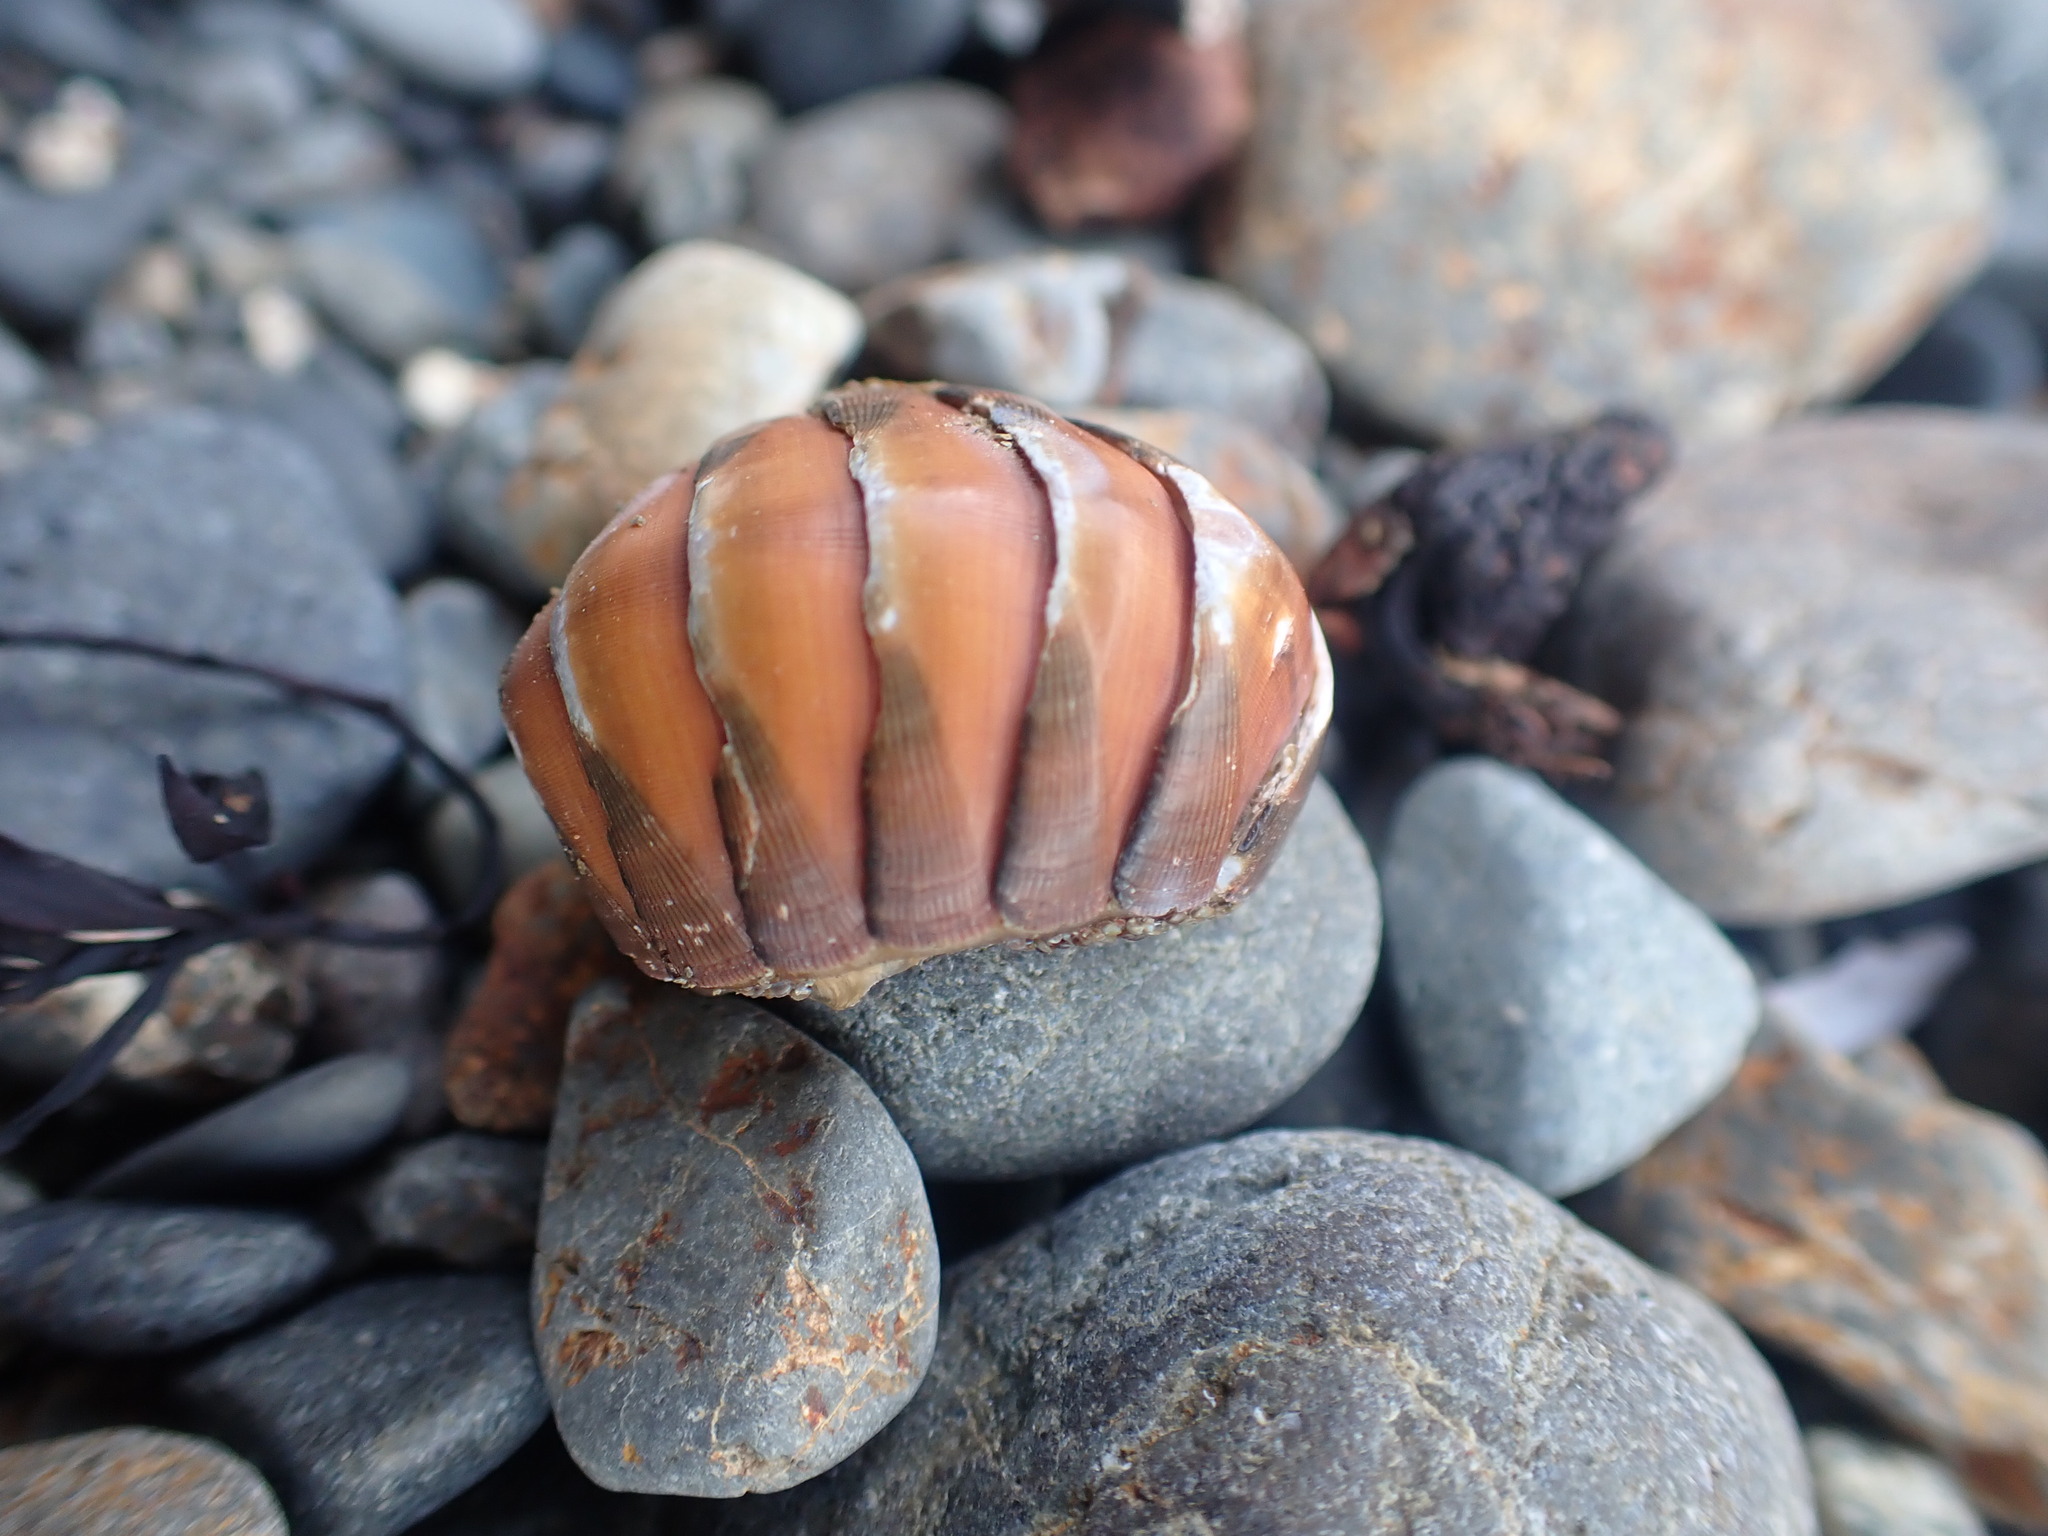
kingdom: Animalia
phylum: Mollusca
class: Polyplacophora
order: Chitonida
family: Chitonidae
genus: Chiton
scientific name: Chiton glaucus
